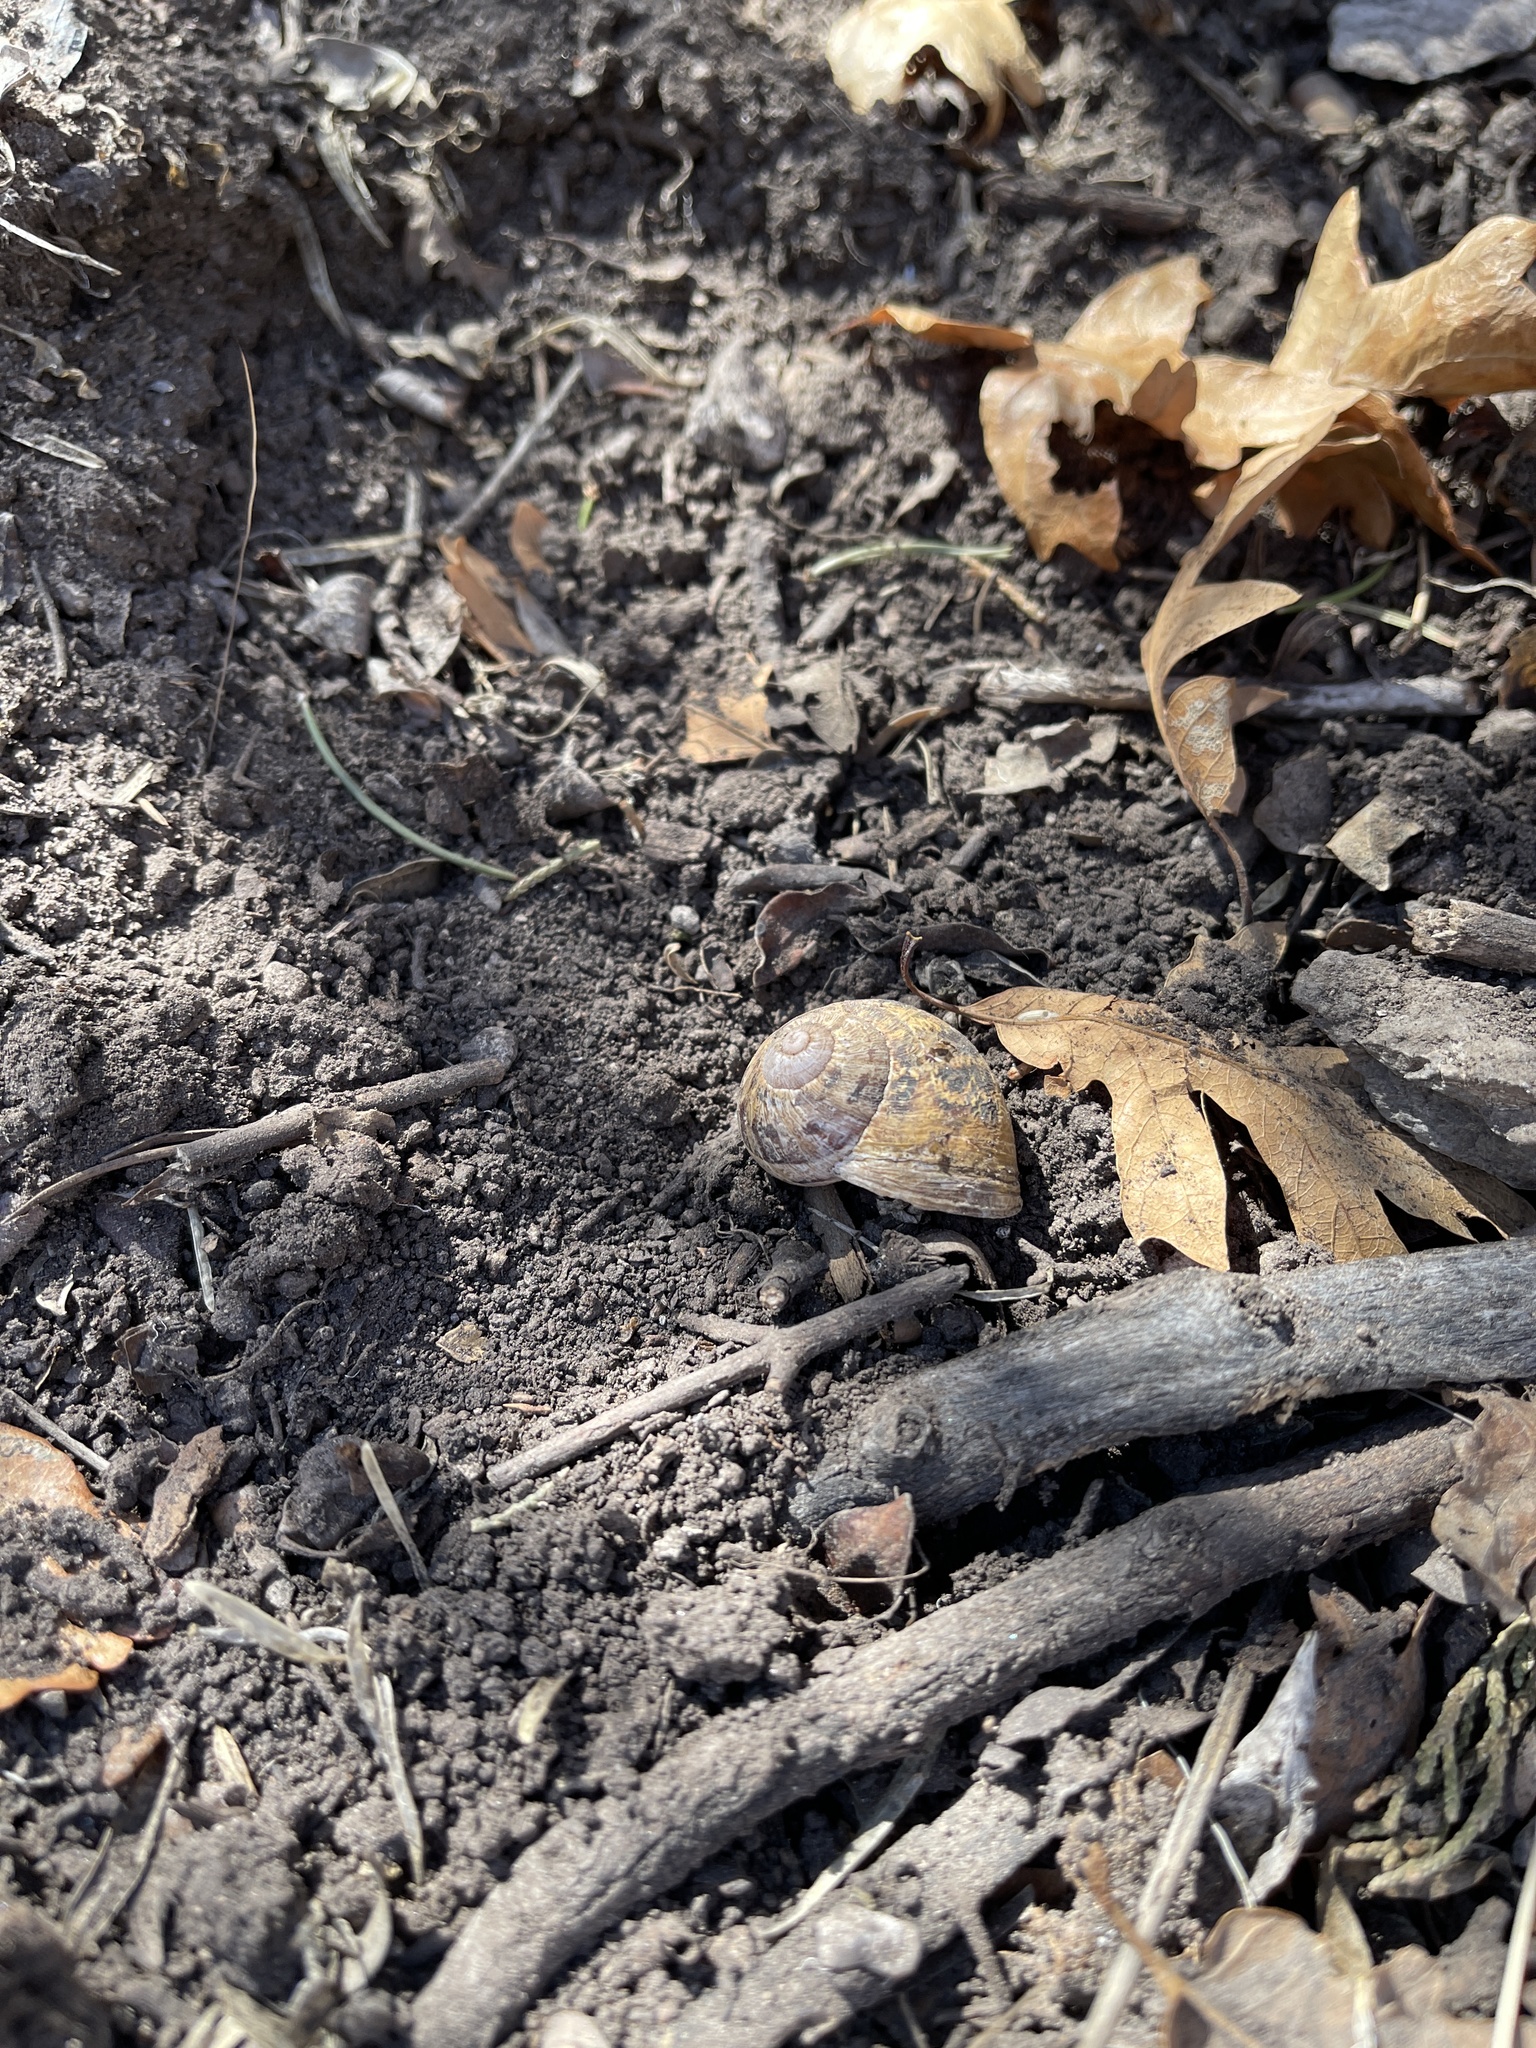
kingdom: Animalia
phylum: Mollusca
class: Gastropoda
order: Stylommatophora
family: Helicidae
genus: Cornu
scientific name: Cornu aspersum
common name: Brown garden snail
